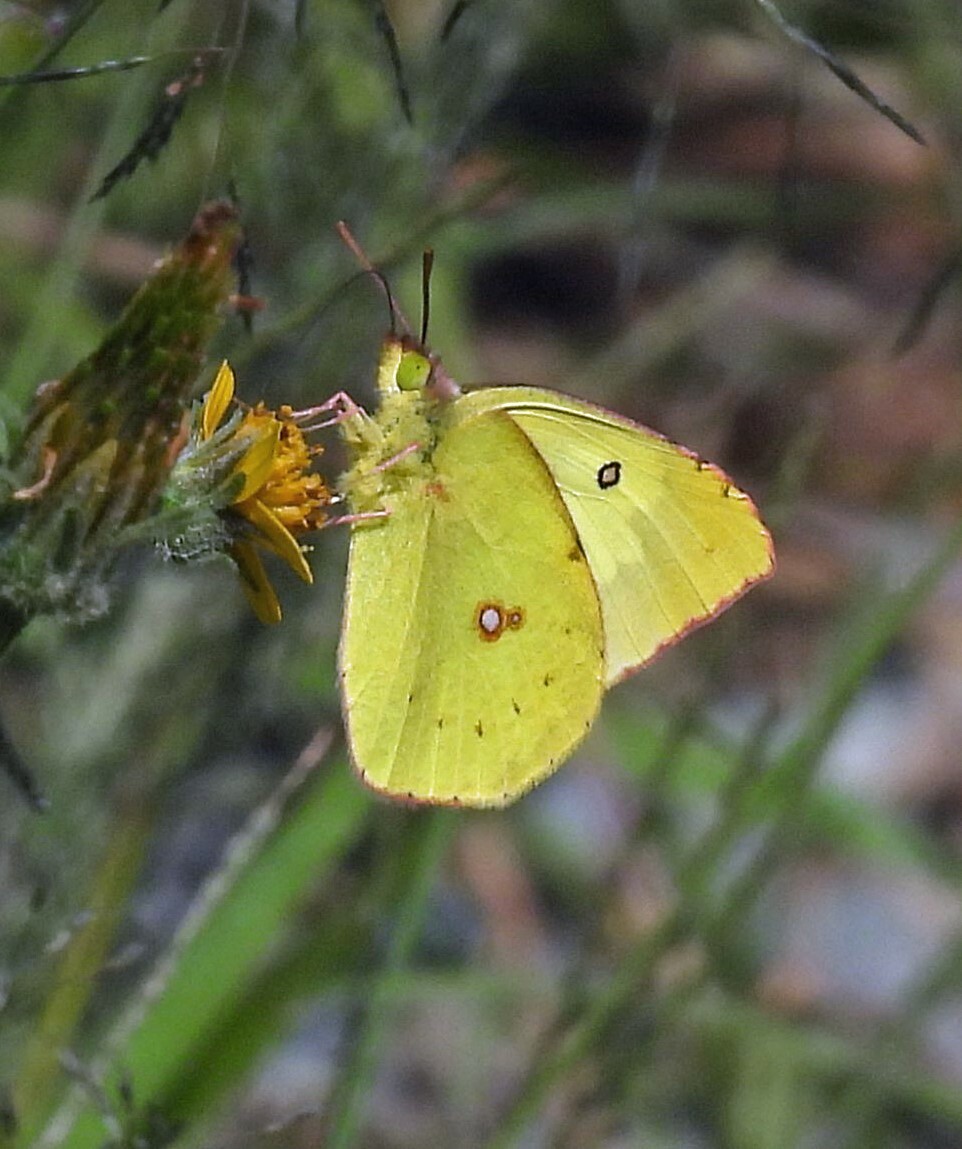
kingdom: Animalia
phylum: Arthropoda
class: Insecta
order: Lepidoptera
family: Pieridae
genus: Zerene
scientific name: Zerene cesonia
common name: Southern dogface
